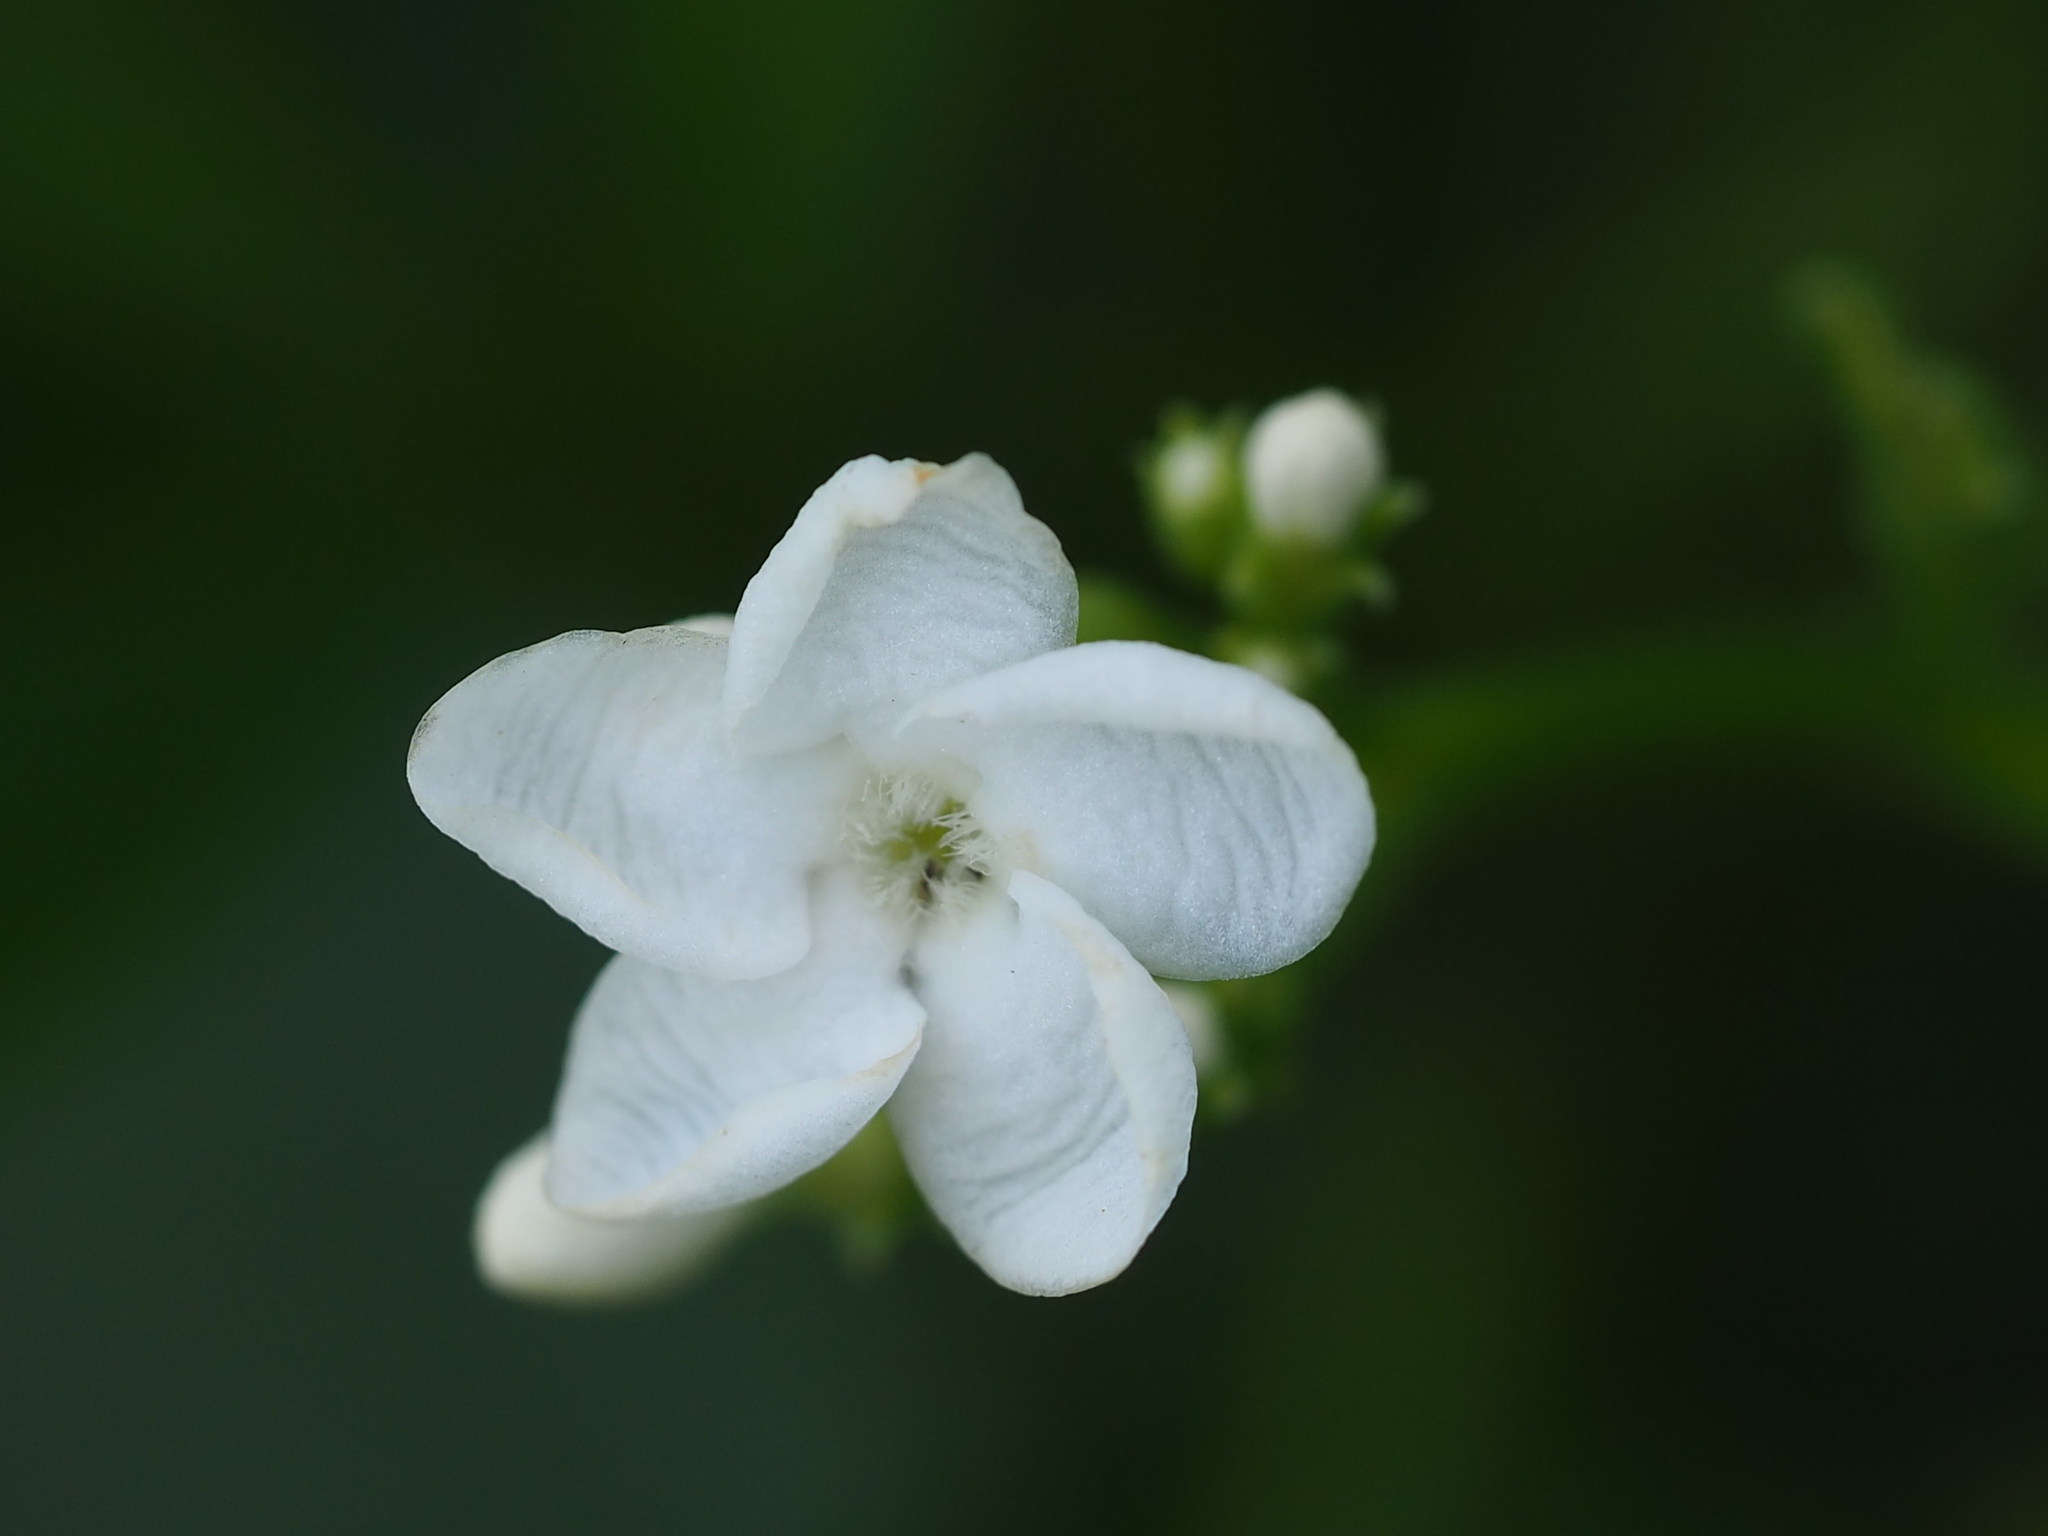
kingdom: Plantae
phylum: Tracheophyta
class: Magnoliopsida
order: Gentianales
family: Apocynaceae
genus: Rauvolfia
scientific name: Rauvolfia verticillata
